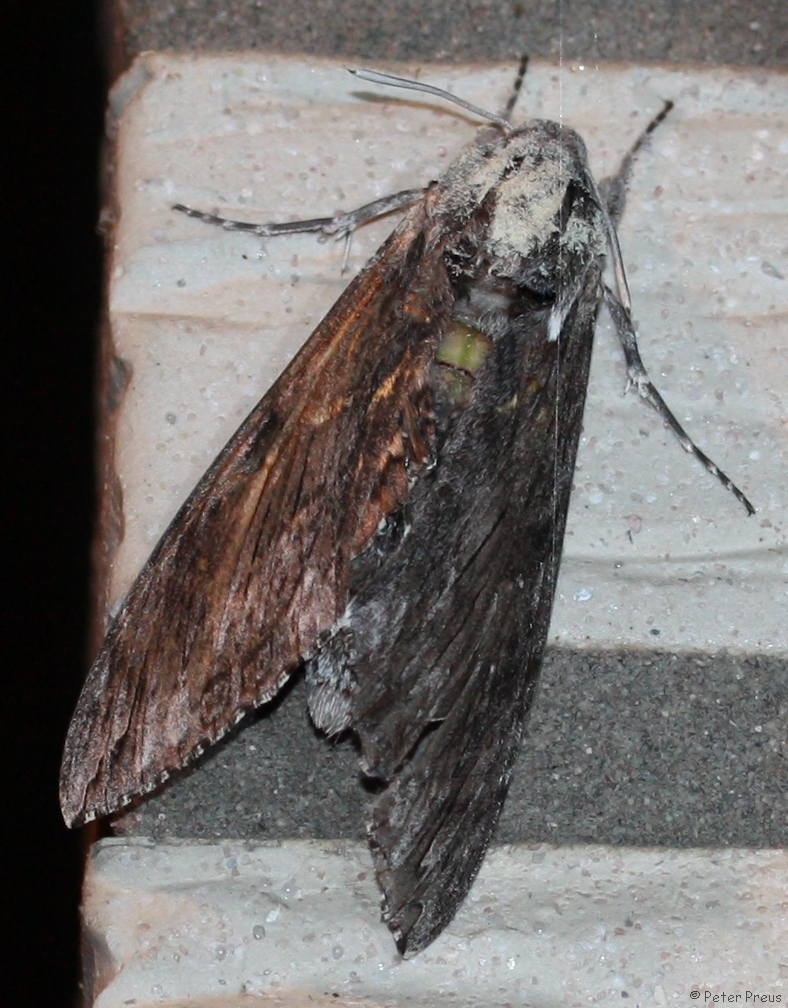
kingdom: Animalia
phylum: Arthropoda
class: Insecta
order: Lepidoptera
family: Sphingidae
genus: Agrius
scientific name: Agrius convolvuli
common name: Convolvulus hawkmoth
